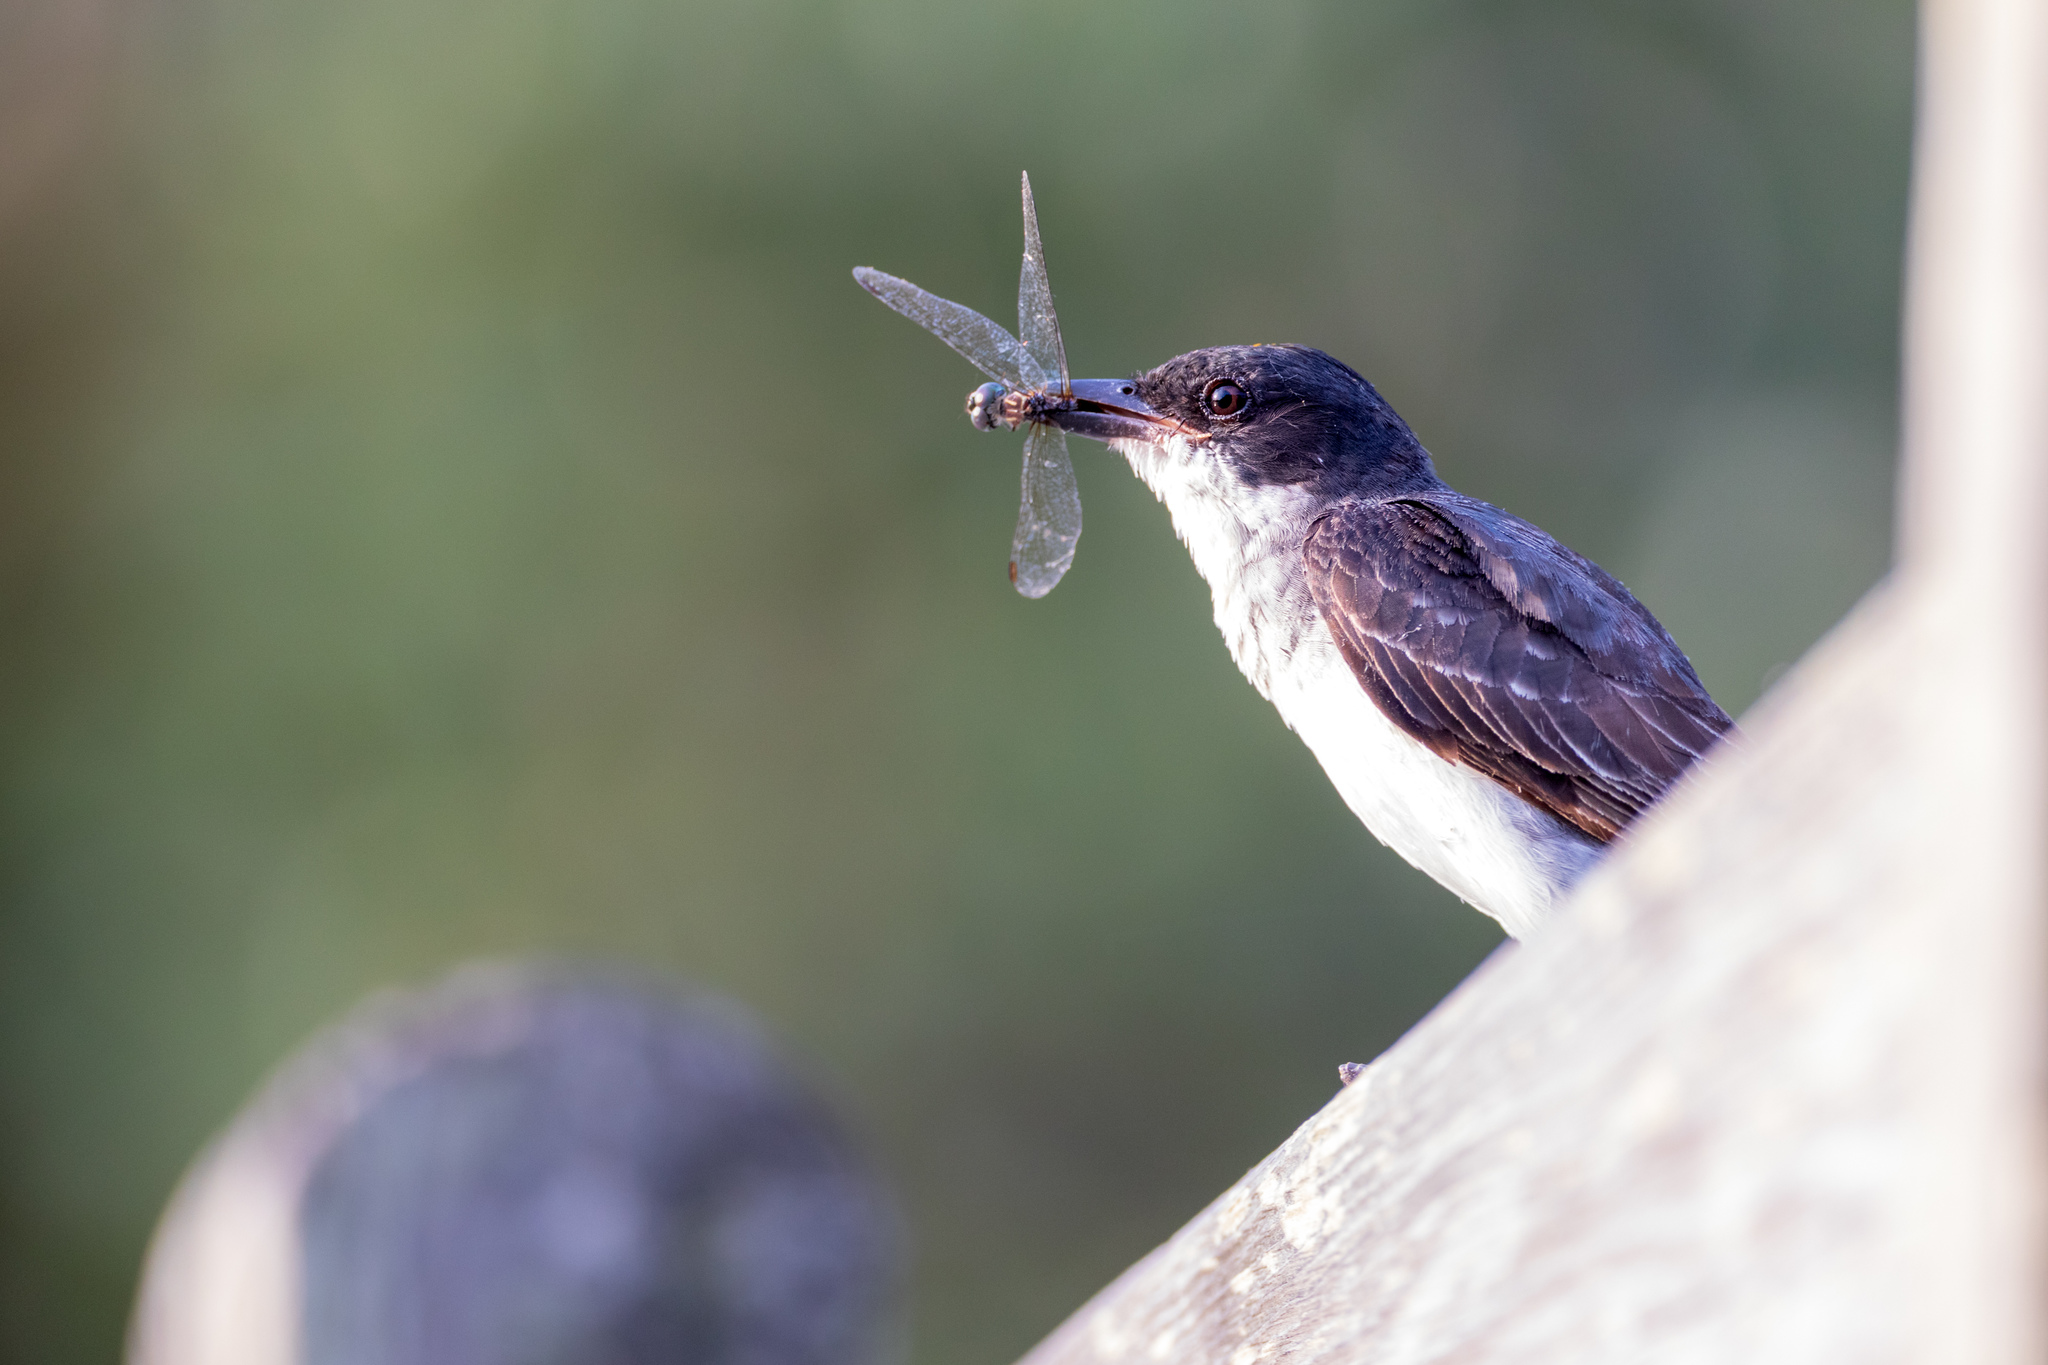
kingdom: Animalia
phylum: Chordata
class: Aves
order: Passeriformes
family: Tyrannidae
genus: Tyrannus
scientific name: Tyrannus tyrannus
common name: Eastern kingbird
